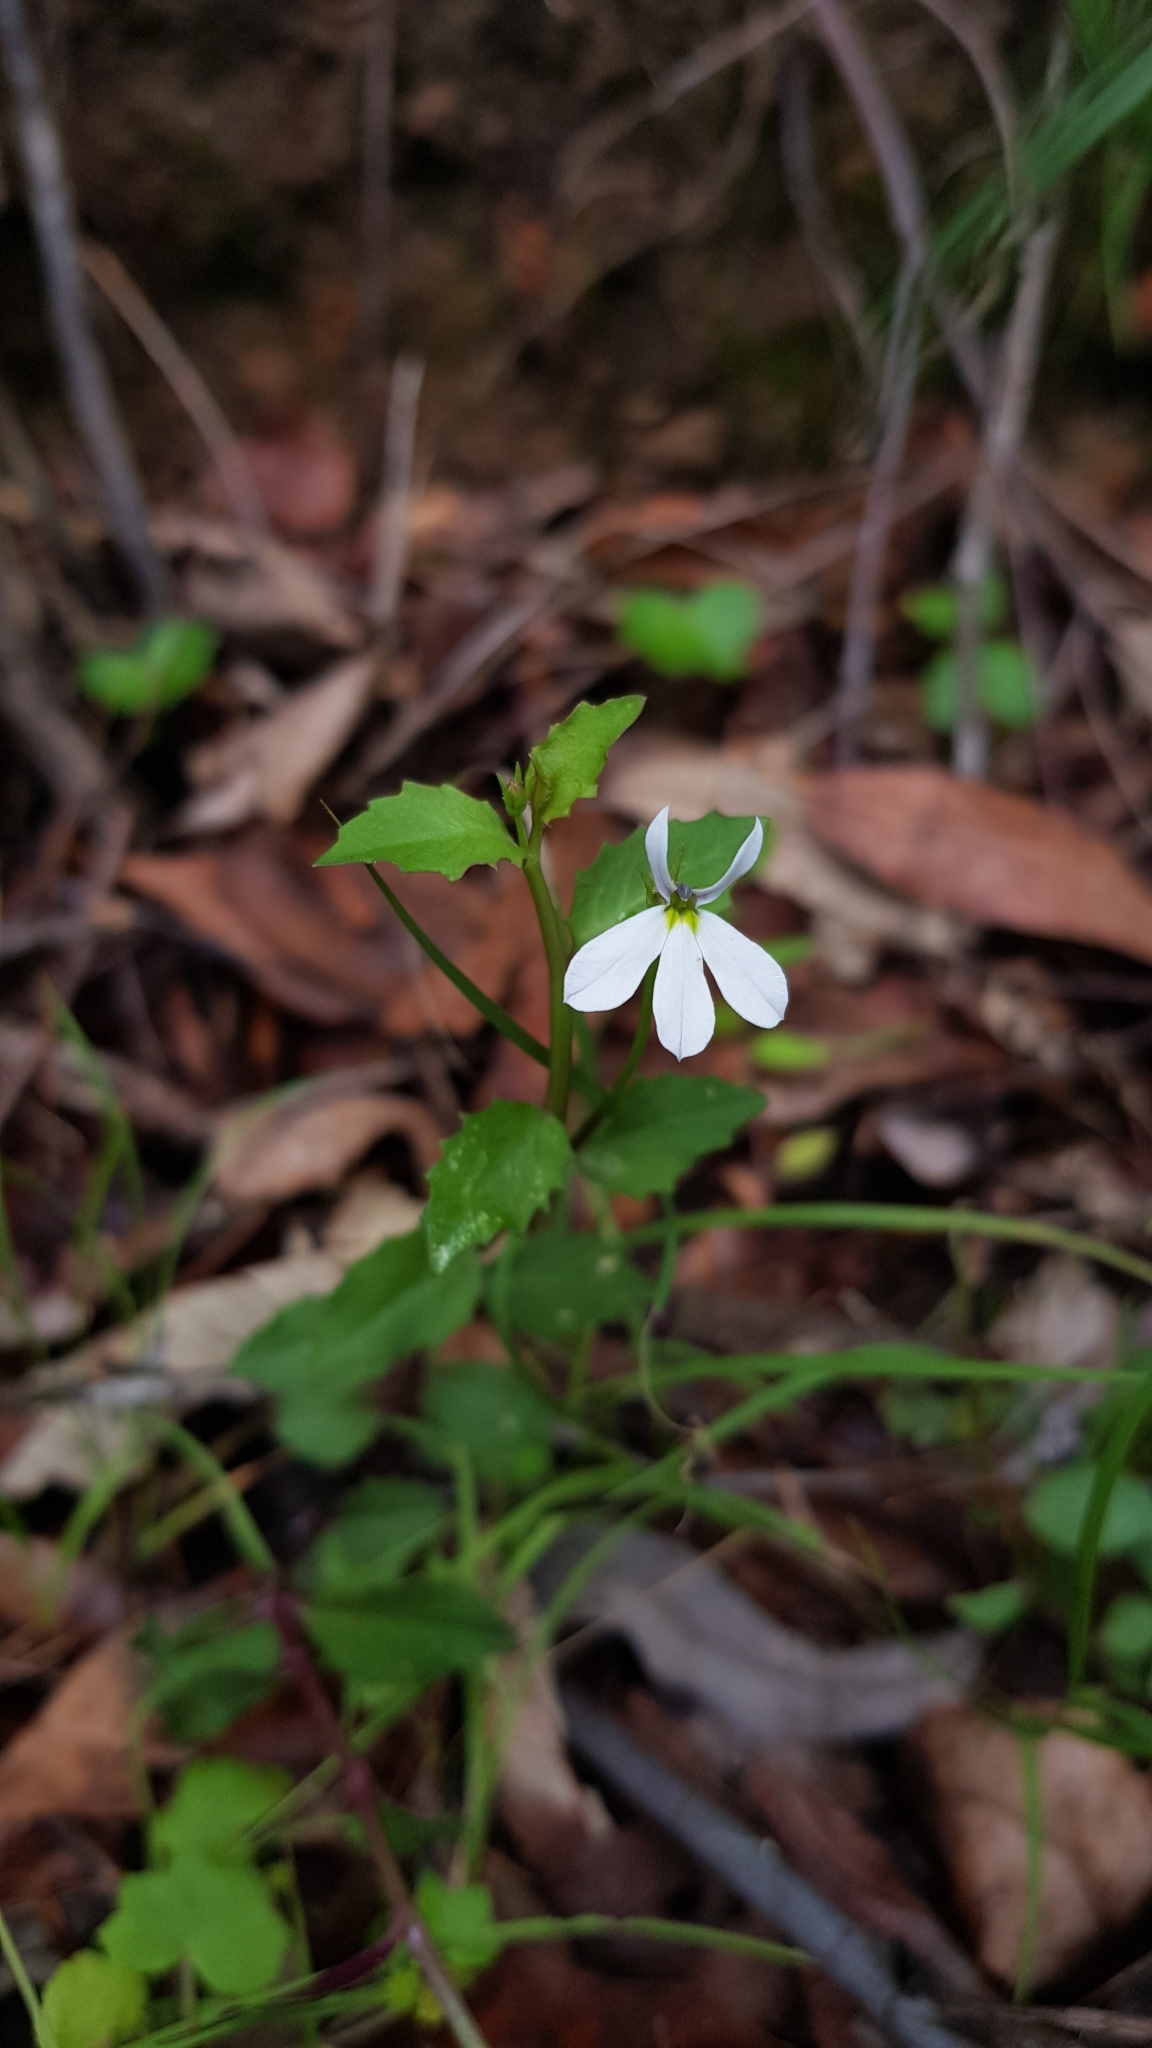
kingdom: Plantae
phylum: Tracheophyta
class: Magnoliopsida
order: Asterales
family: Campanulaceae
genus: Lobelia
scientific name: Lobelia purpurascens
